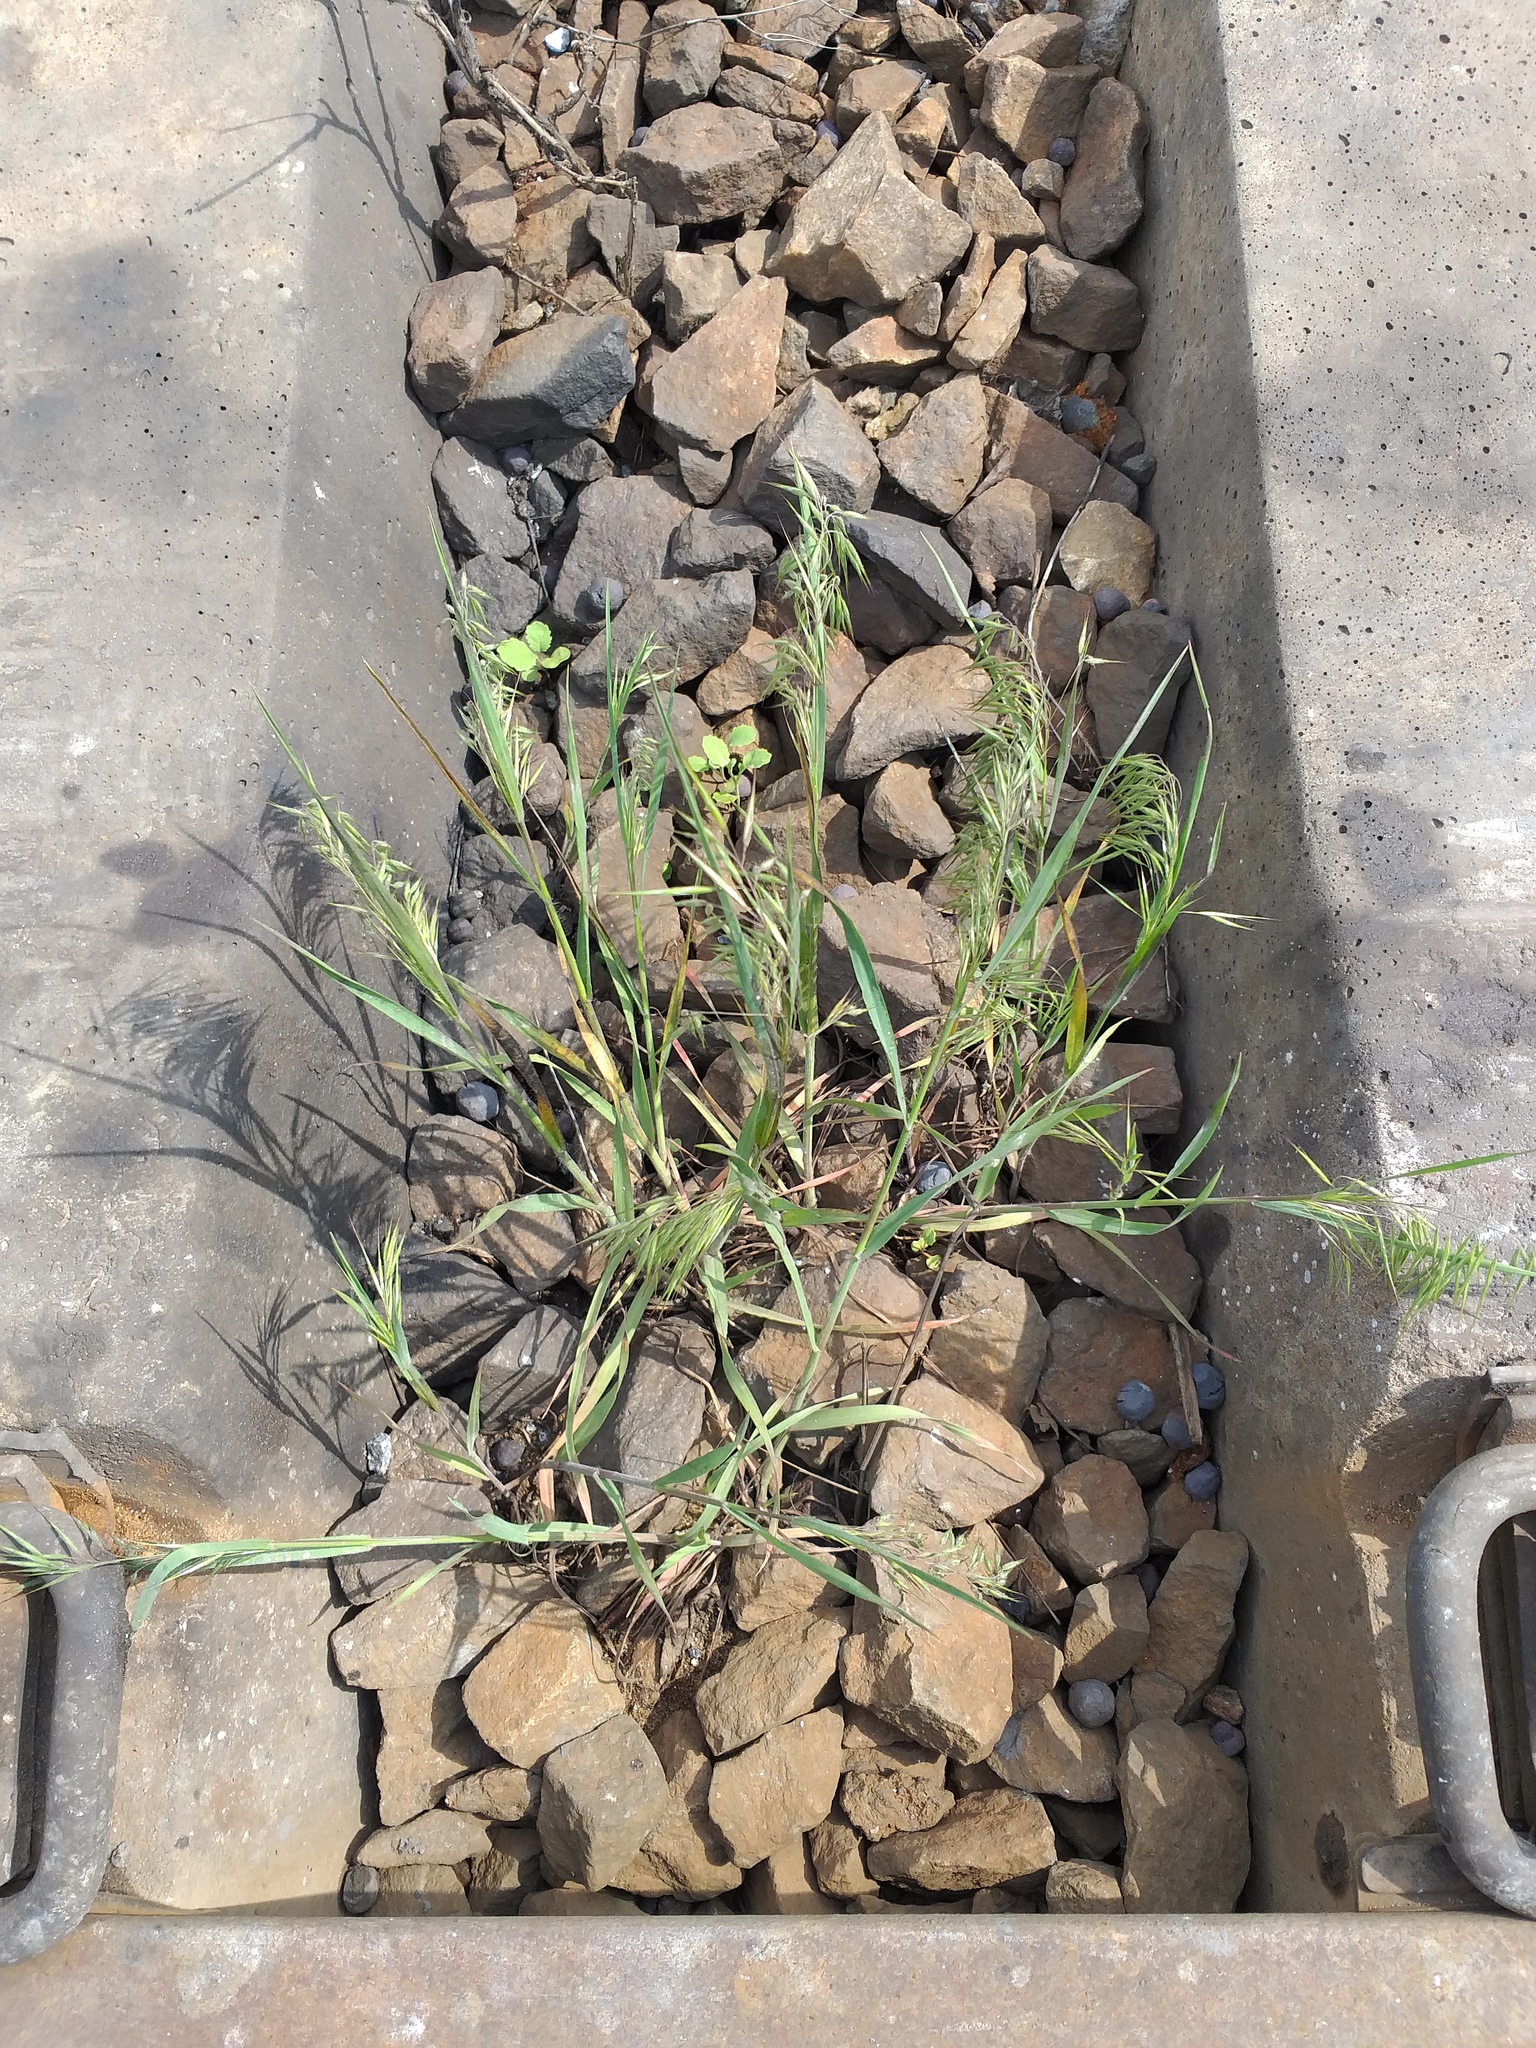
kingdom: Plantae
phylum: Tracheophyta
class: Liliopsida
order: Poales
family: Poaceae
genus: Bromus
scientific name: Bromus tectorum
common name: Cheatgrass
